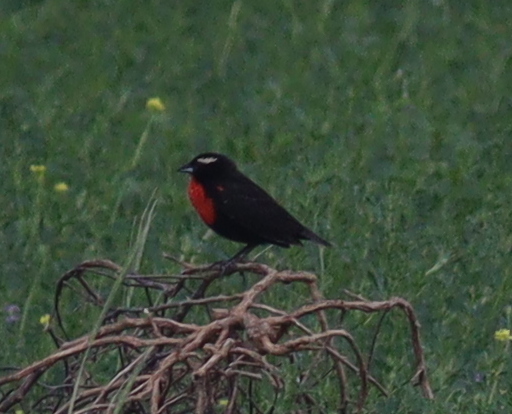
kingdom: Animalia
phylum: Chordata
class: Aves
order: Passeriformes
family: Icteridae
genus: Sturnella
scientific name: Sturnella superciliaris
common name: White-browed blackbird
